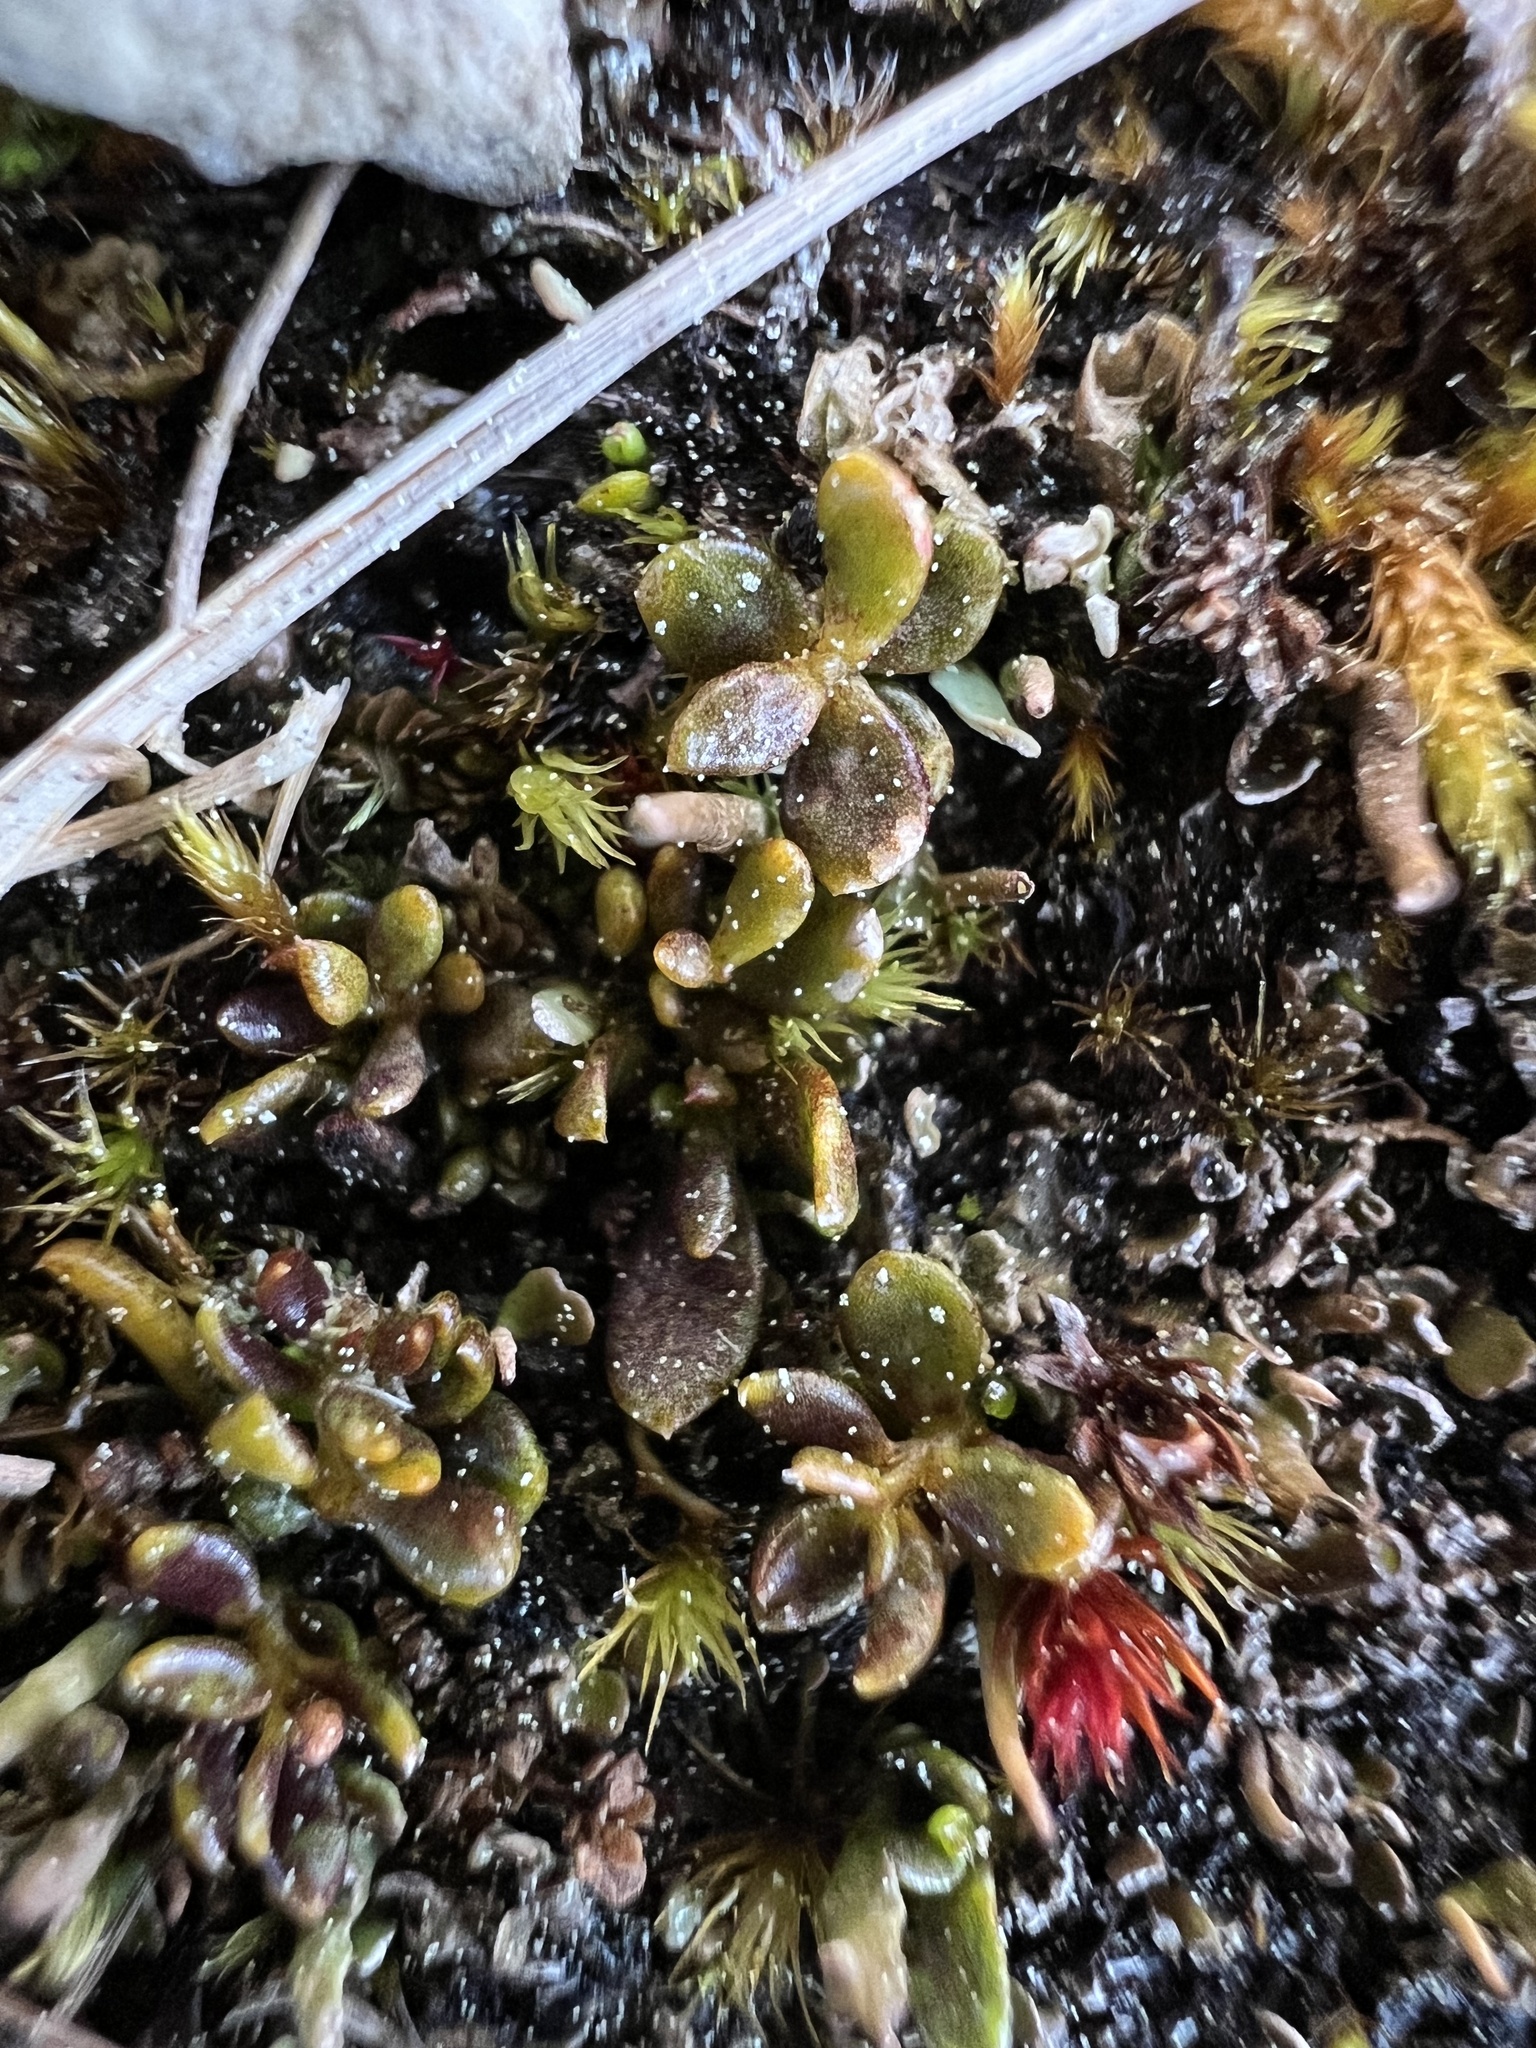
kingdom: Plantae
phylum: Tracheophyta
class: Magnoliopsida
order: Celastrales
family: Celastraceae
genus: Stackhousia
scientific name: Stackhousia minima
